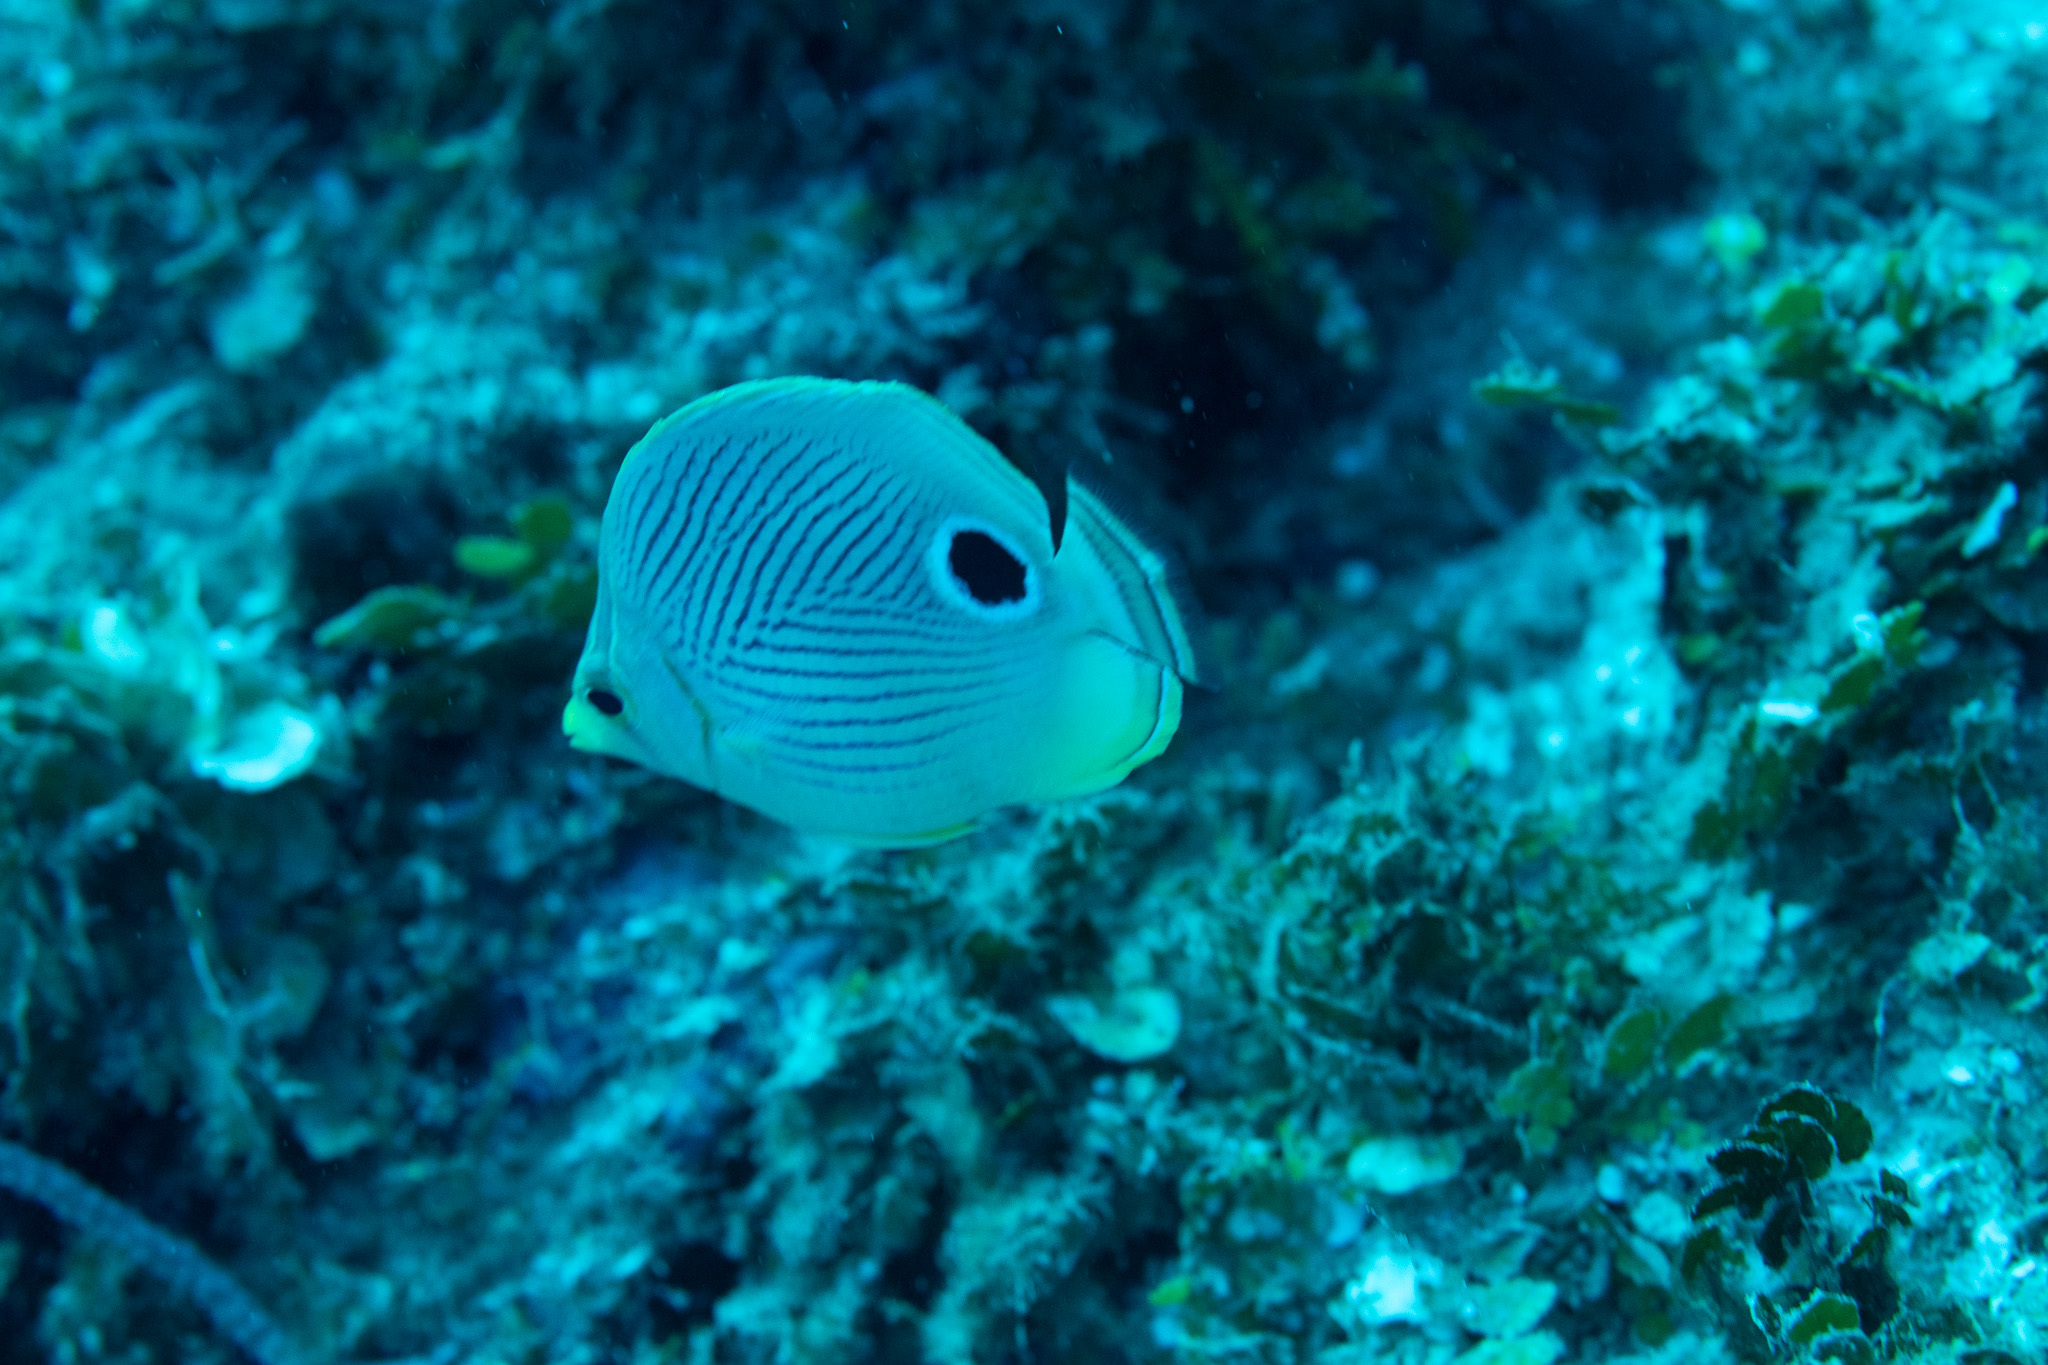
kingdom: Animalia
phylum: Chordata
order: Perciformes
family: Chaetodontidae
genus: Chaetodon
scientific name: Chaetodon capistratus
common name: Kete
